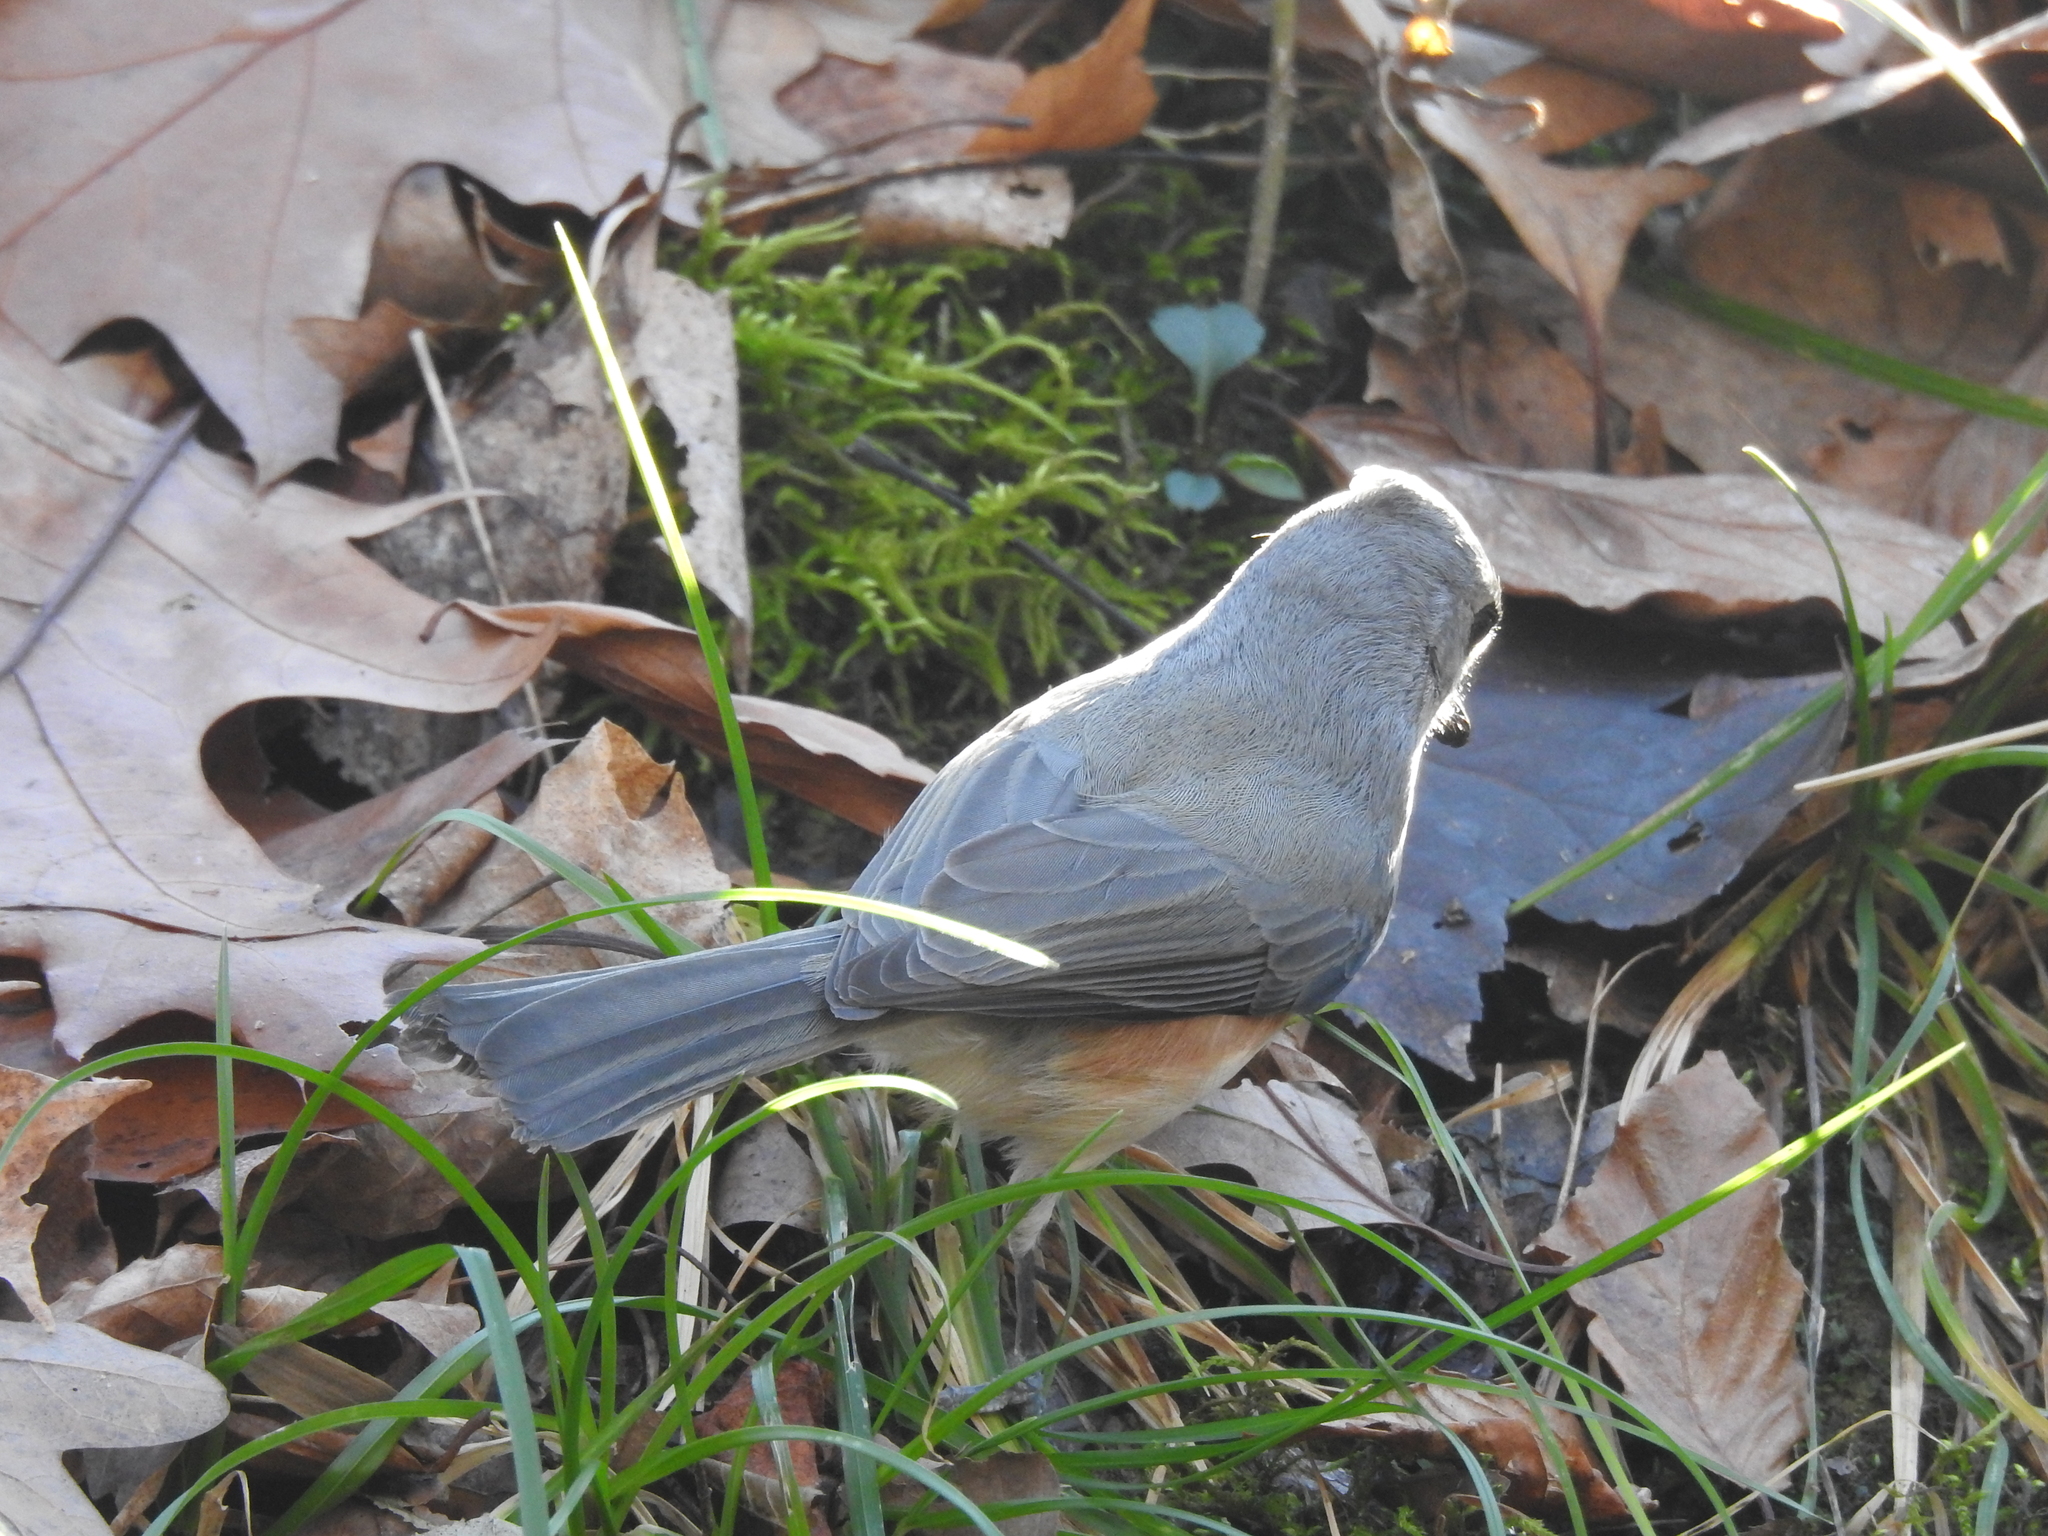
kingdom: Animalia
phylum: Chordata
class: Aves
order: Passeriformes
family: Paridae
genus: Baeolophus
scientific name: Baeolophus bicolor
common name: Tufted titmouse
